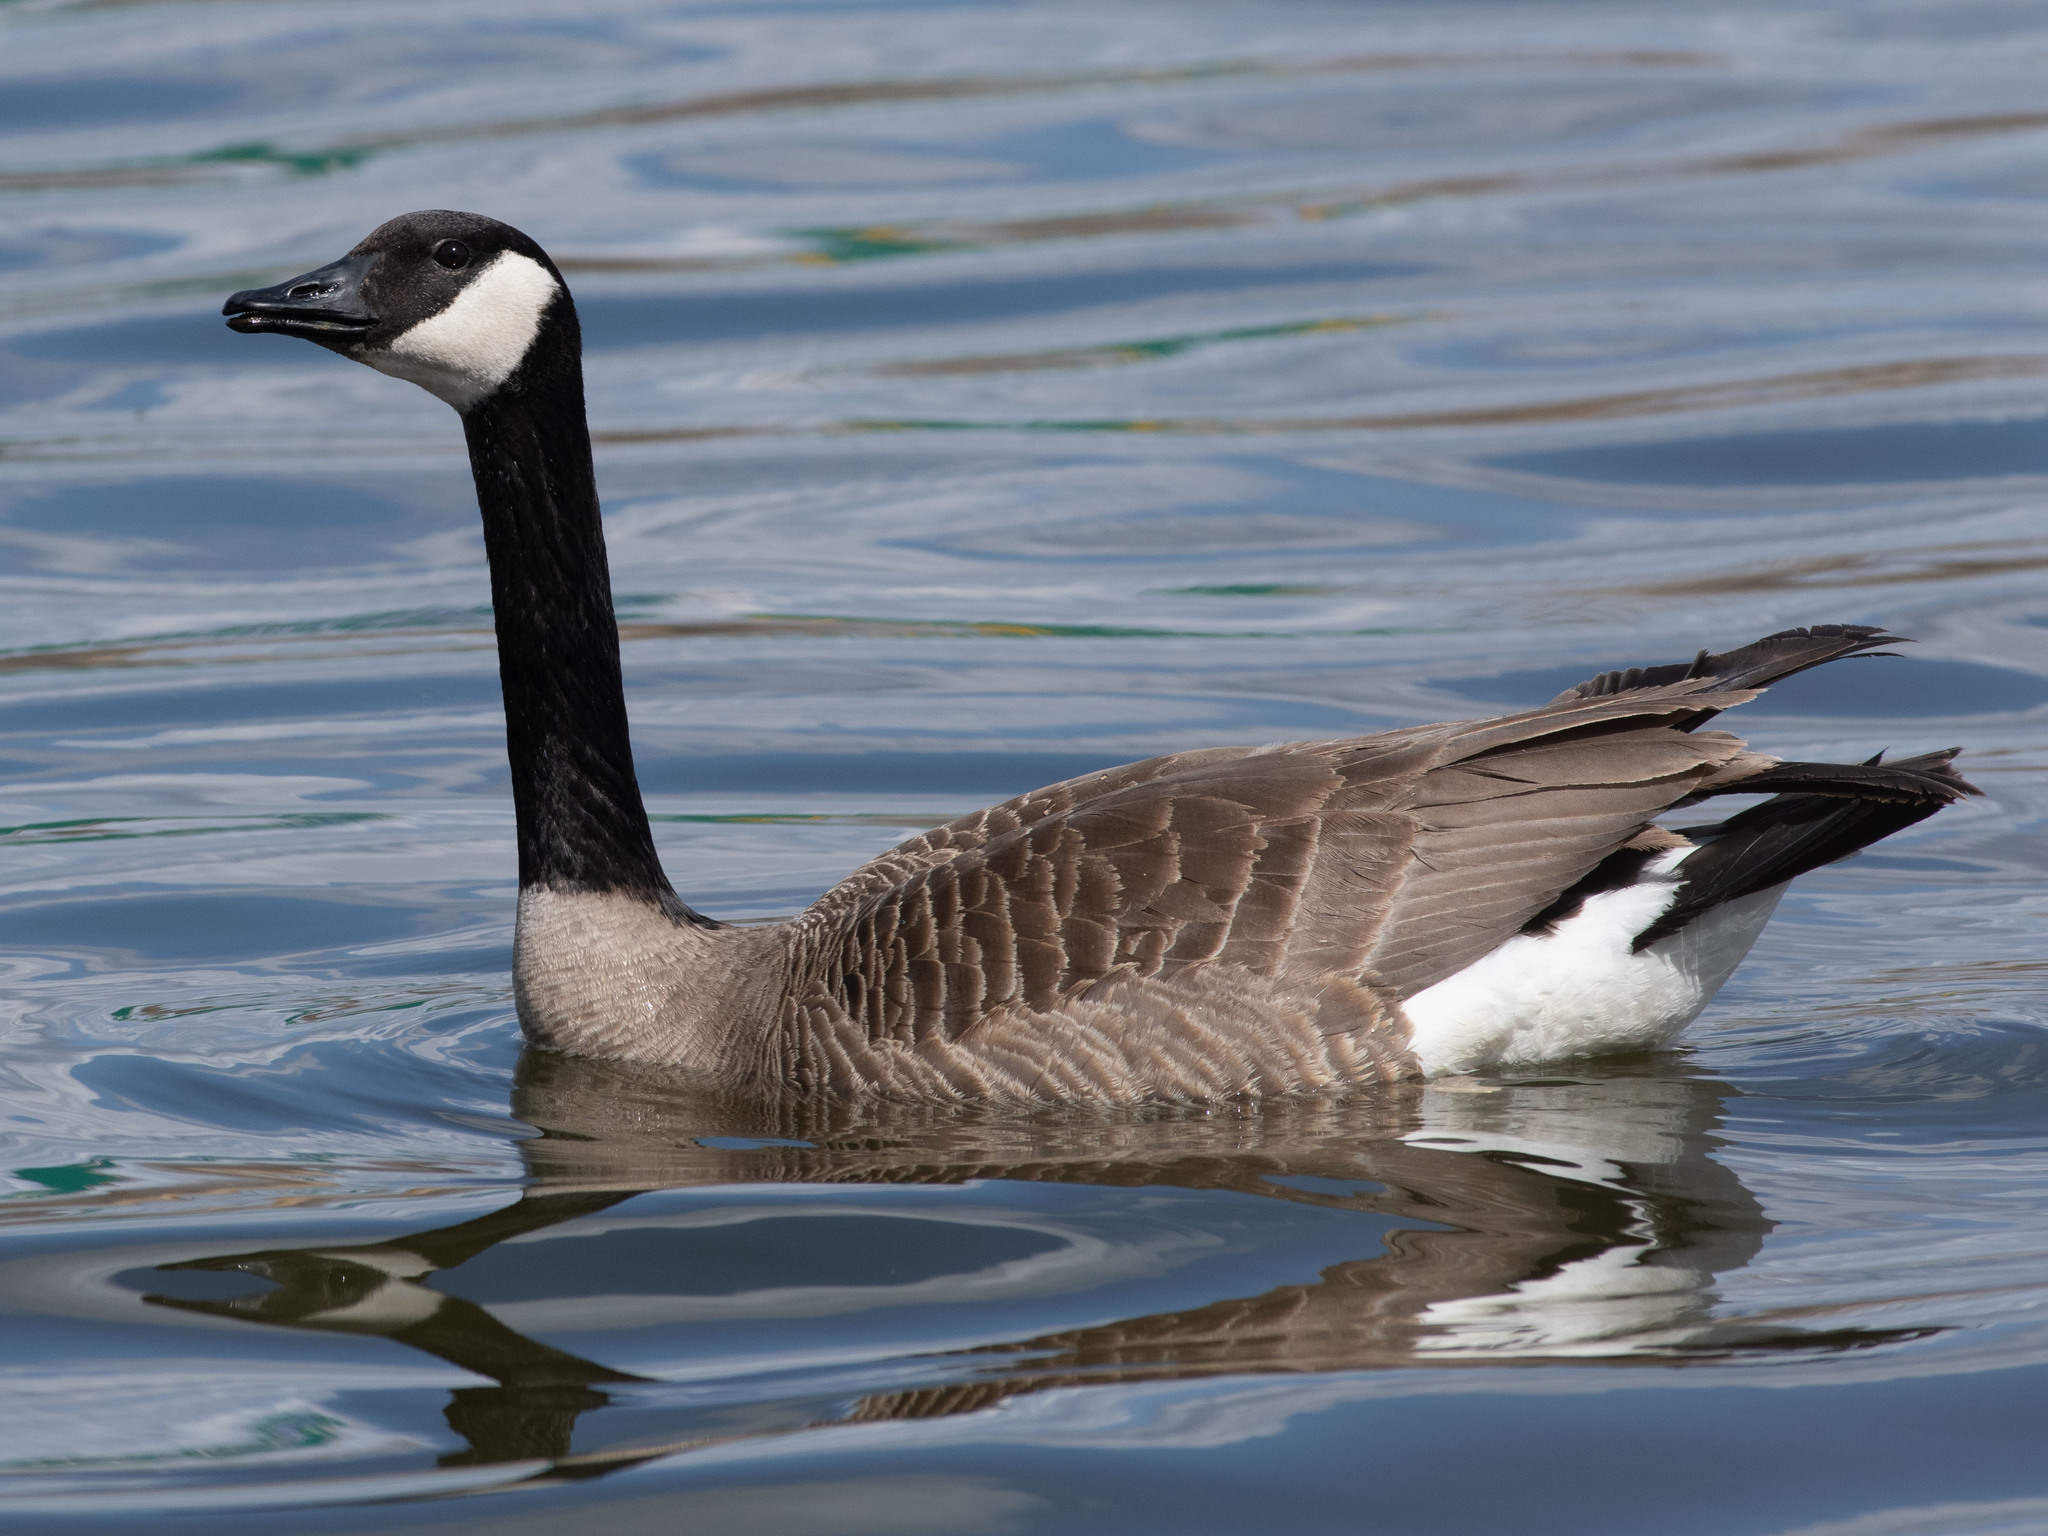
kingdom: Animalia
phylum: Chordata
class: Aves
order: Anseriformes
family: Anatidae
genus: Branta
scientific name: Branta canadensis
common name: Canada goose
